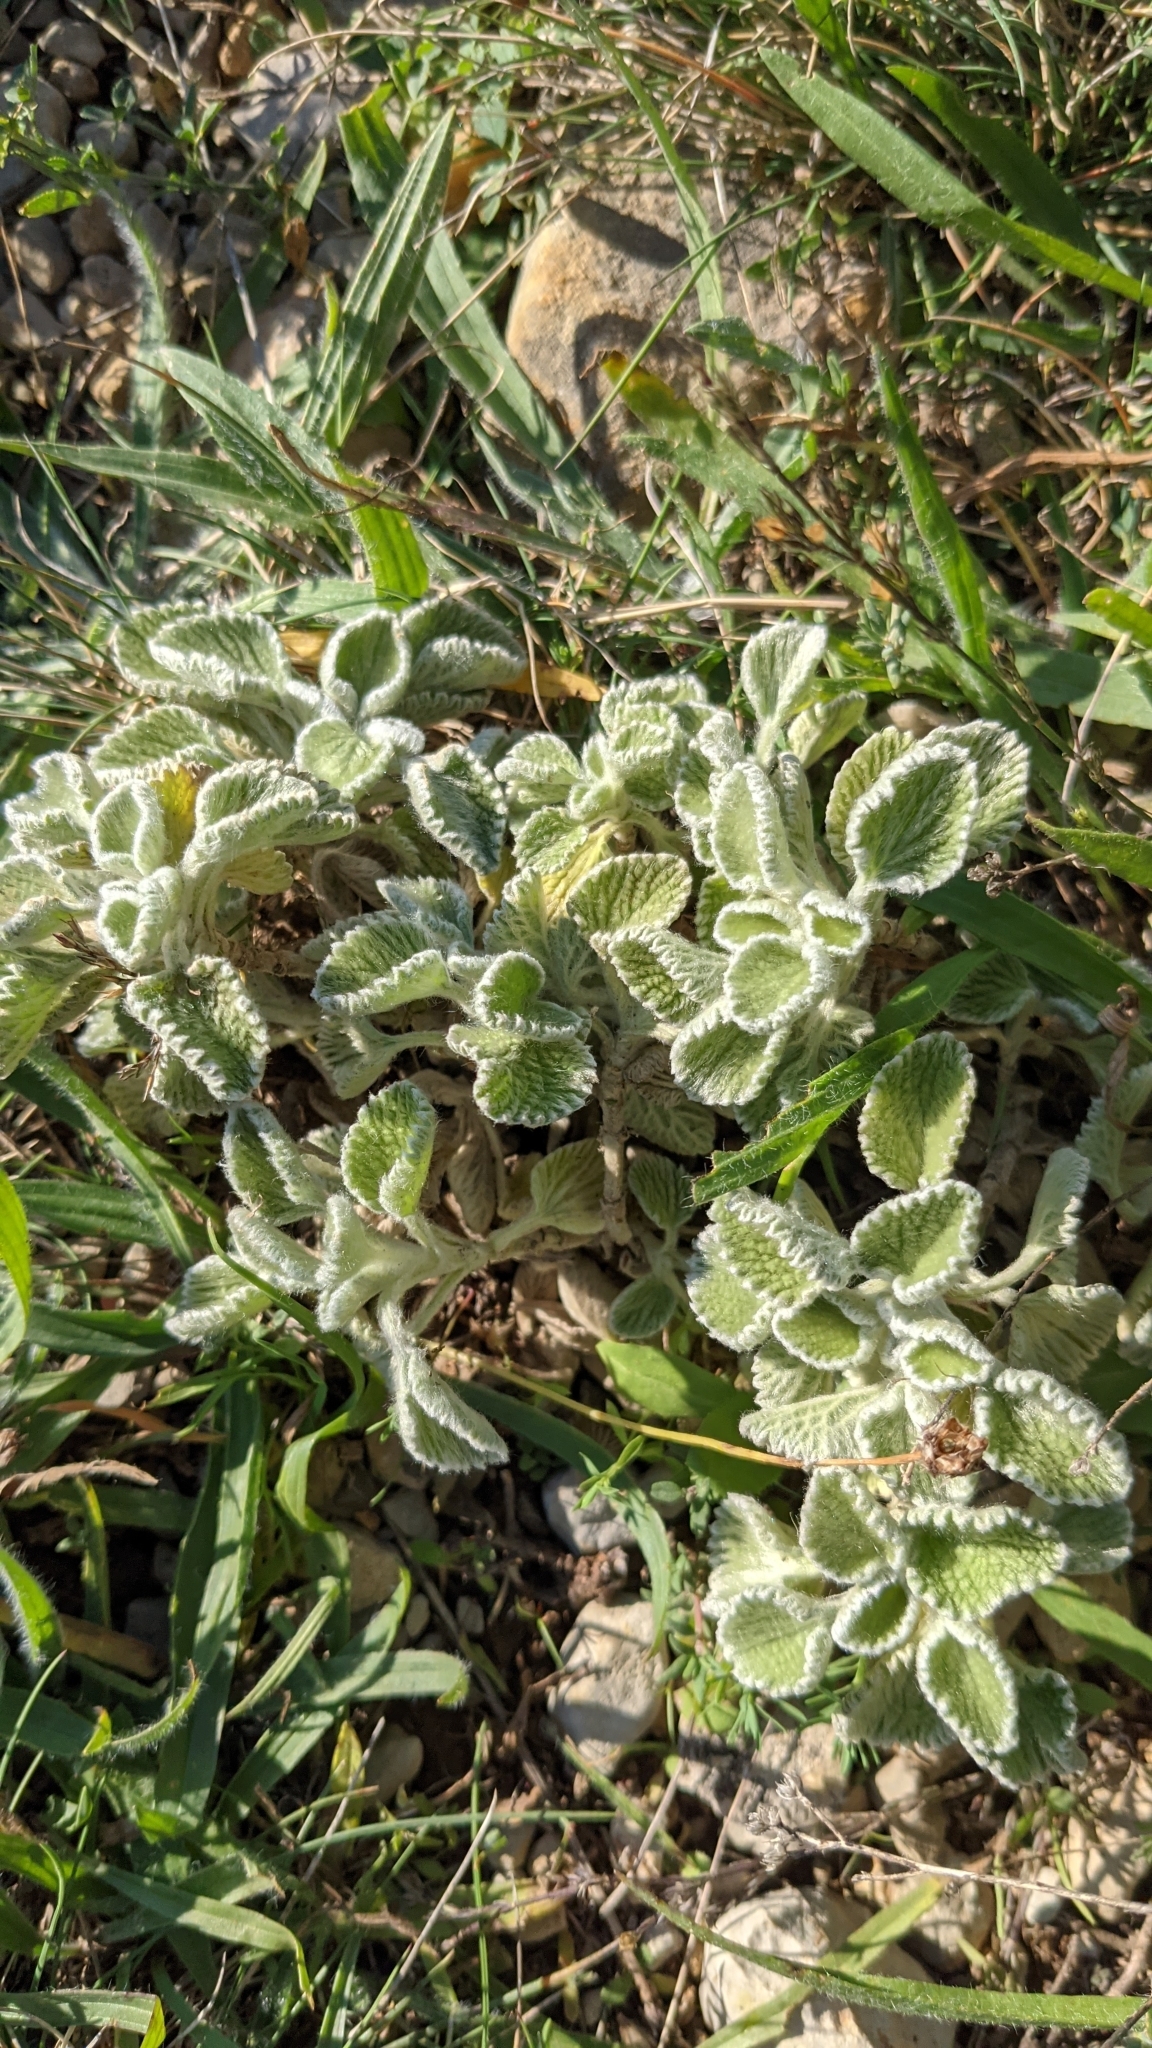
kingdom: Plantae
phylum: Tracheophyta
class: Magnoliopsida
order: Lamiales
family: Lamiaceae
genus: Marrubium
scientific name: Marrubium supinum
